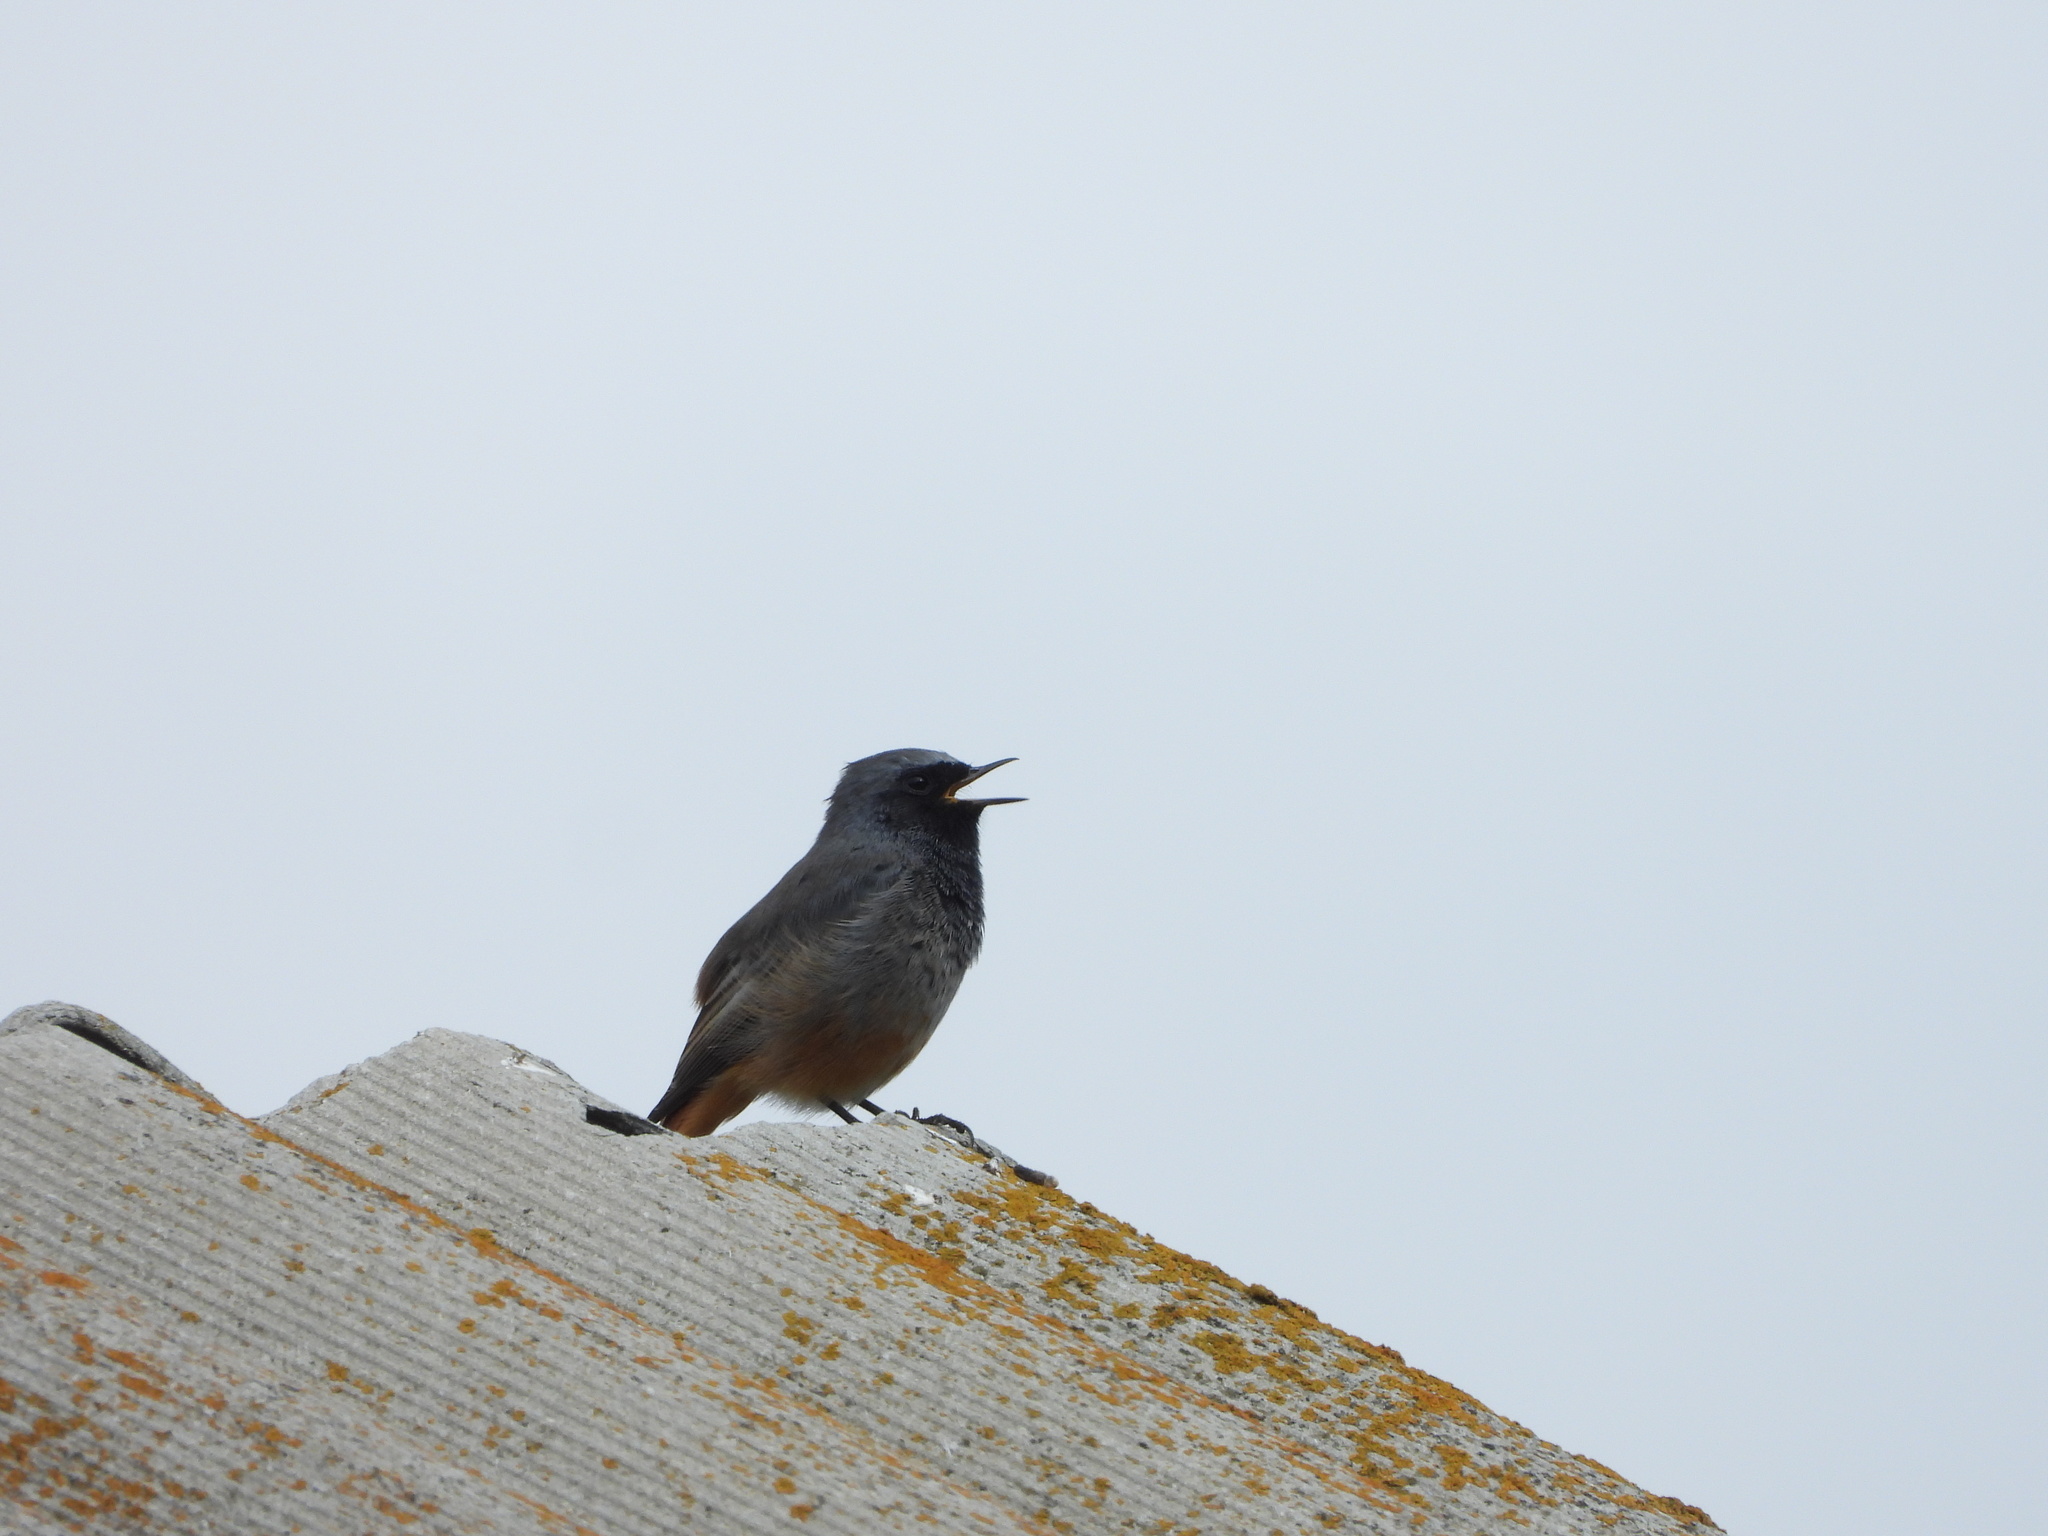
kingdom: Animalia
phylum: Chordata
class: Aves
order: Passeriformes
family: Muscicapidae
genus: Phoenicurus
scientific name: Phoenicurus ochruros
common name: Black redstart
